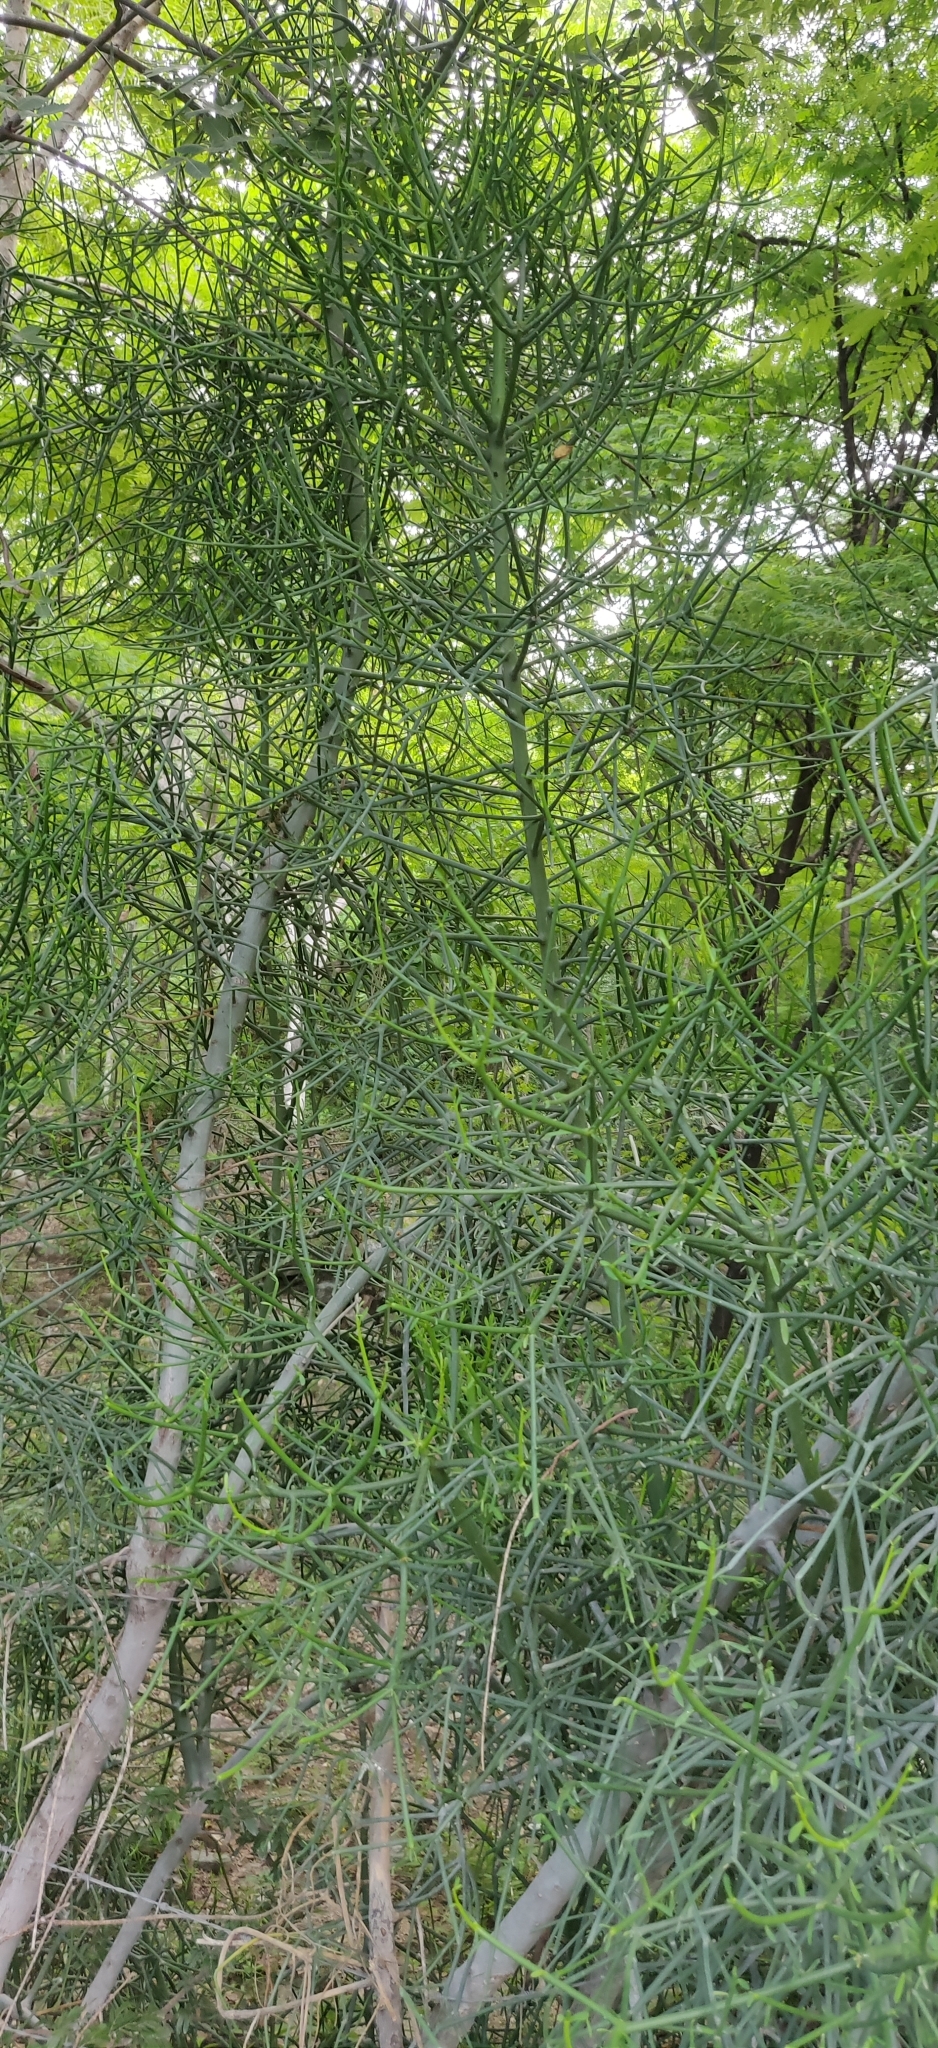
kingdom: Plantae
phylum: Tracheophyta
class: Magnoliopsida
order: Malpighiales
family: Euphorbiaceae
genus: Euphorbia
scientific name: Euphorbia tirucalli
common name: Indiantree spurge
